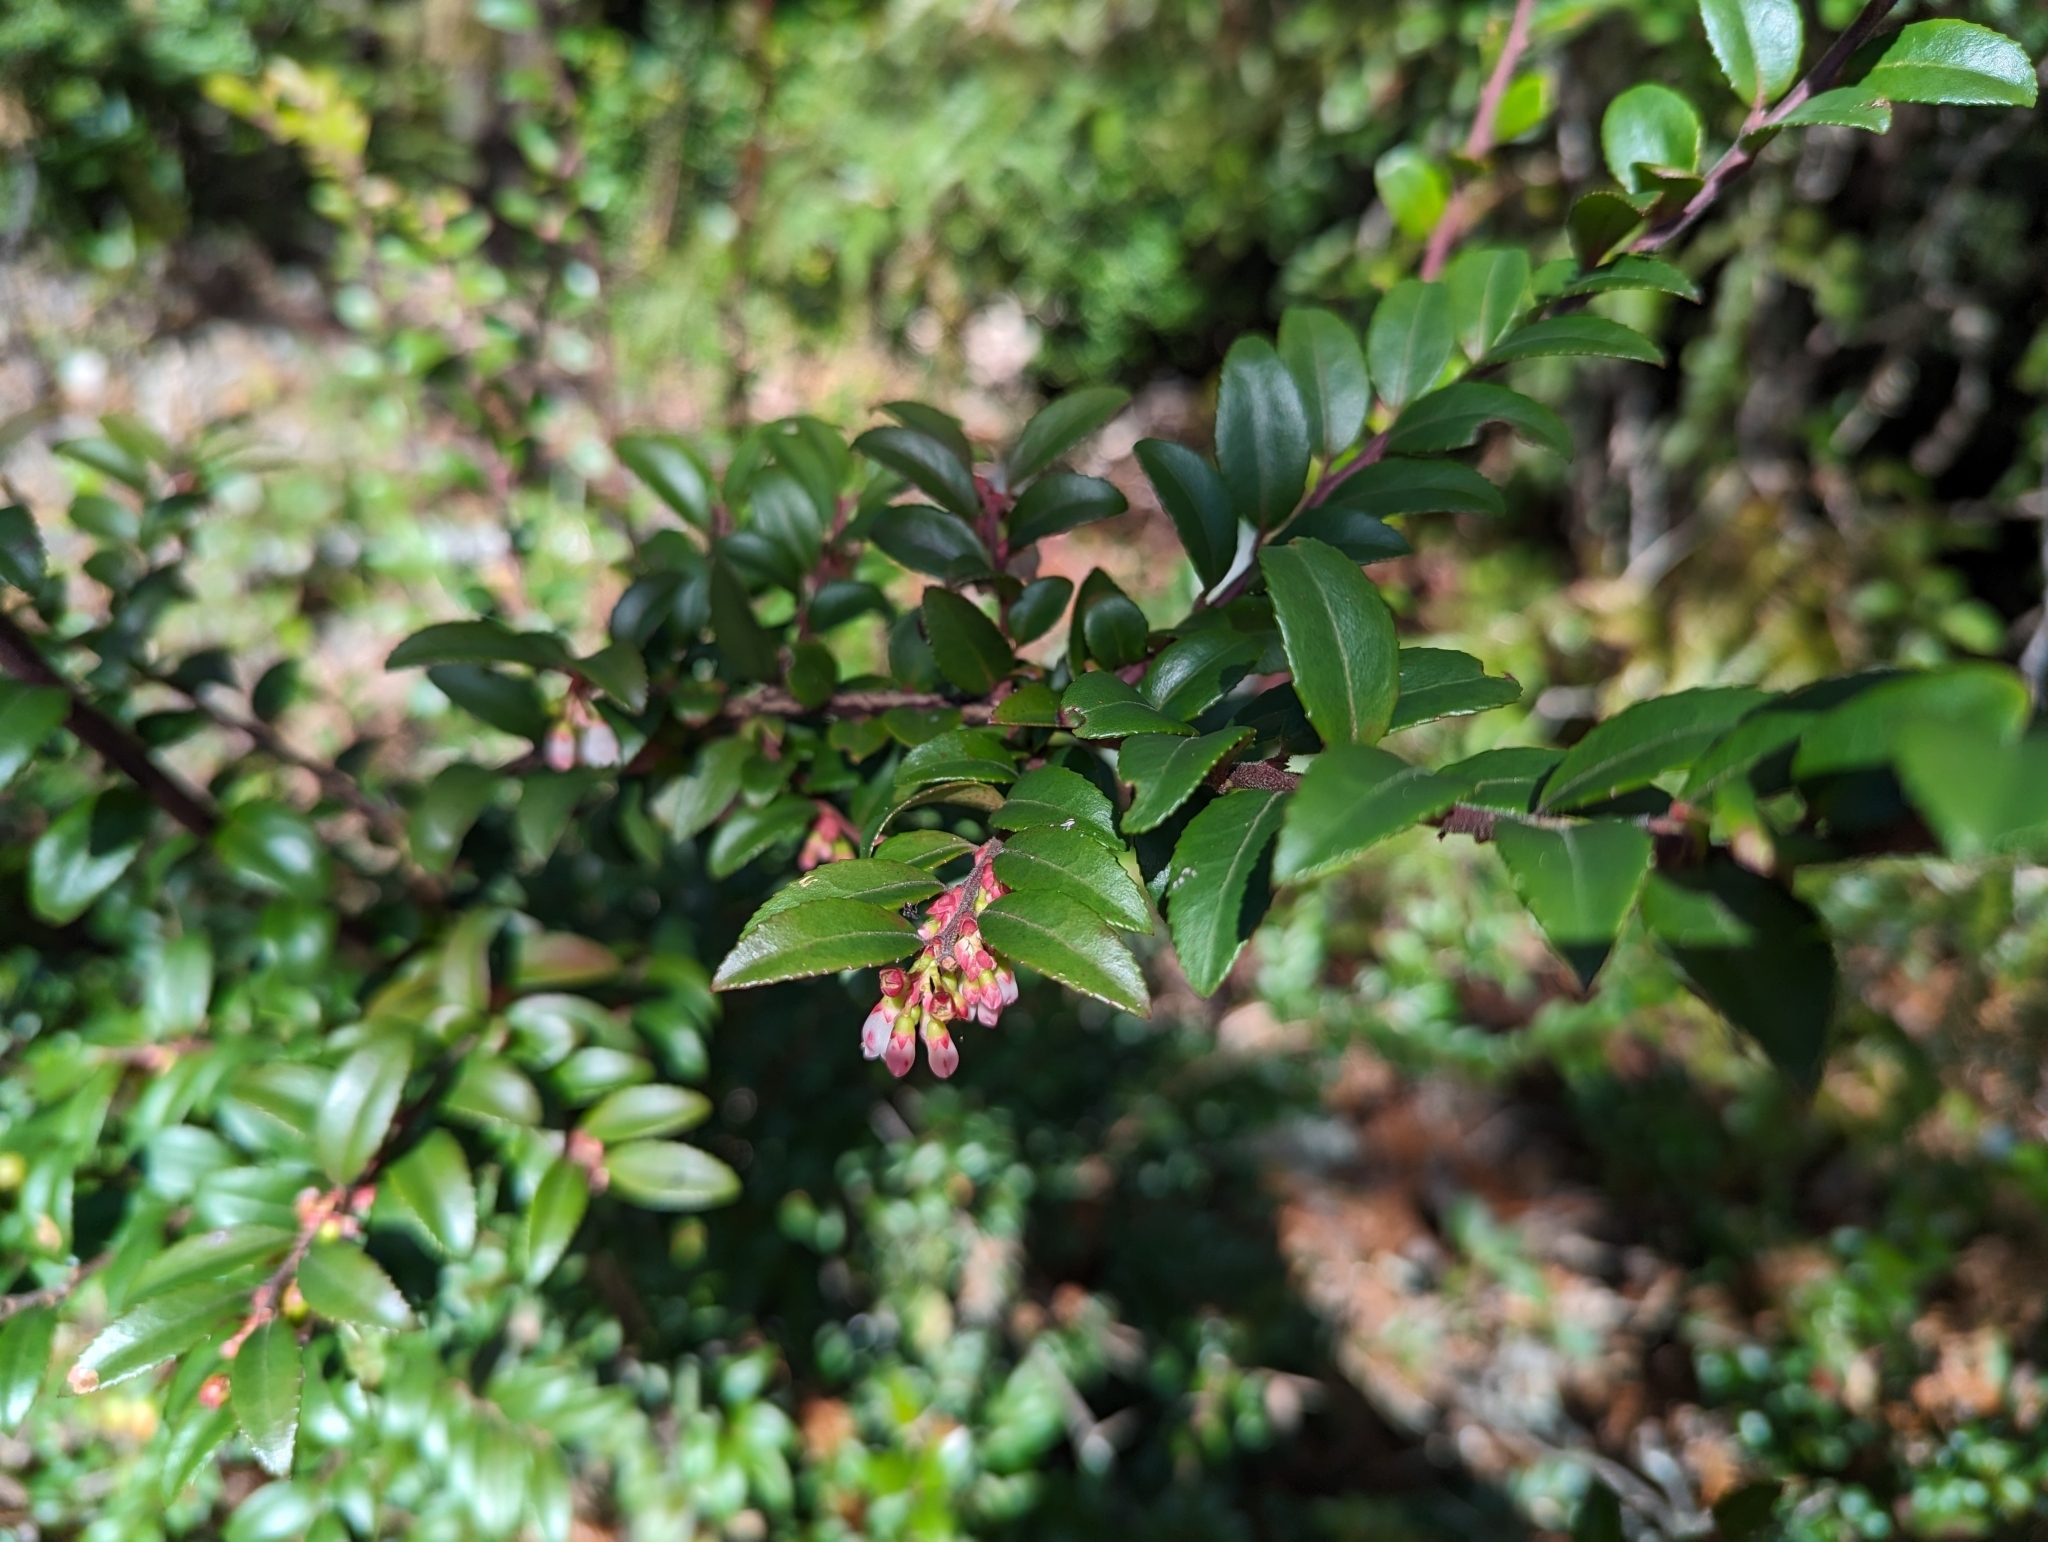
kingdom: Plantae
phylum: Tracheophyta
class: Magnoliopsida
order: Ericales
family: Ericaceae
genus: Vaccinium
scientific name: Vaccinium ovatum
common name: California-huckleberry
